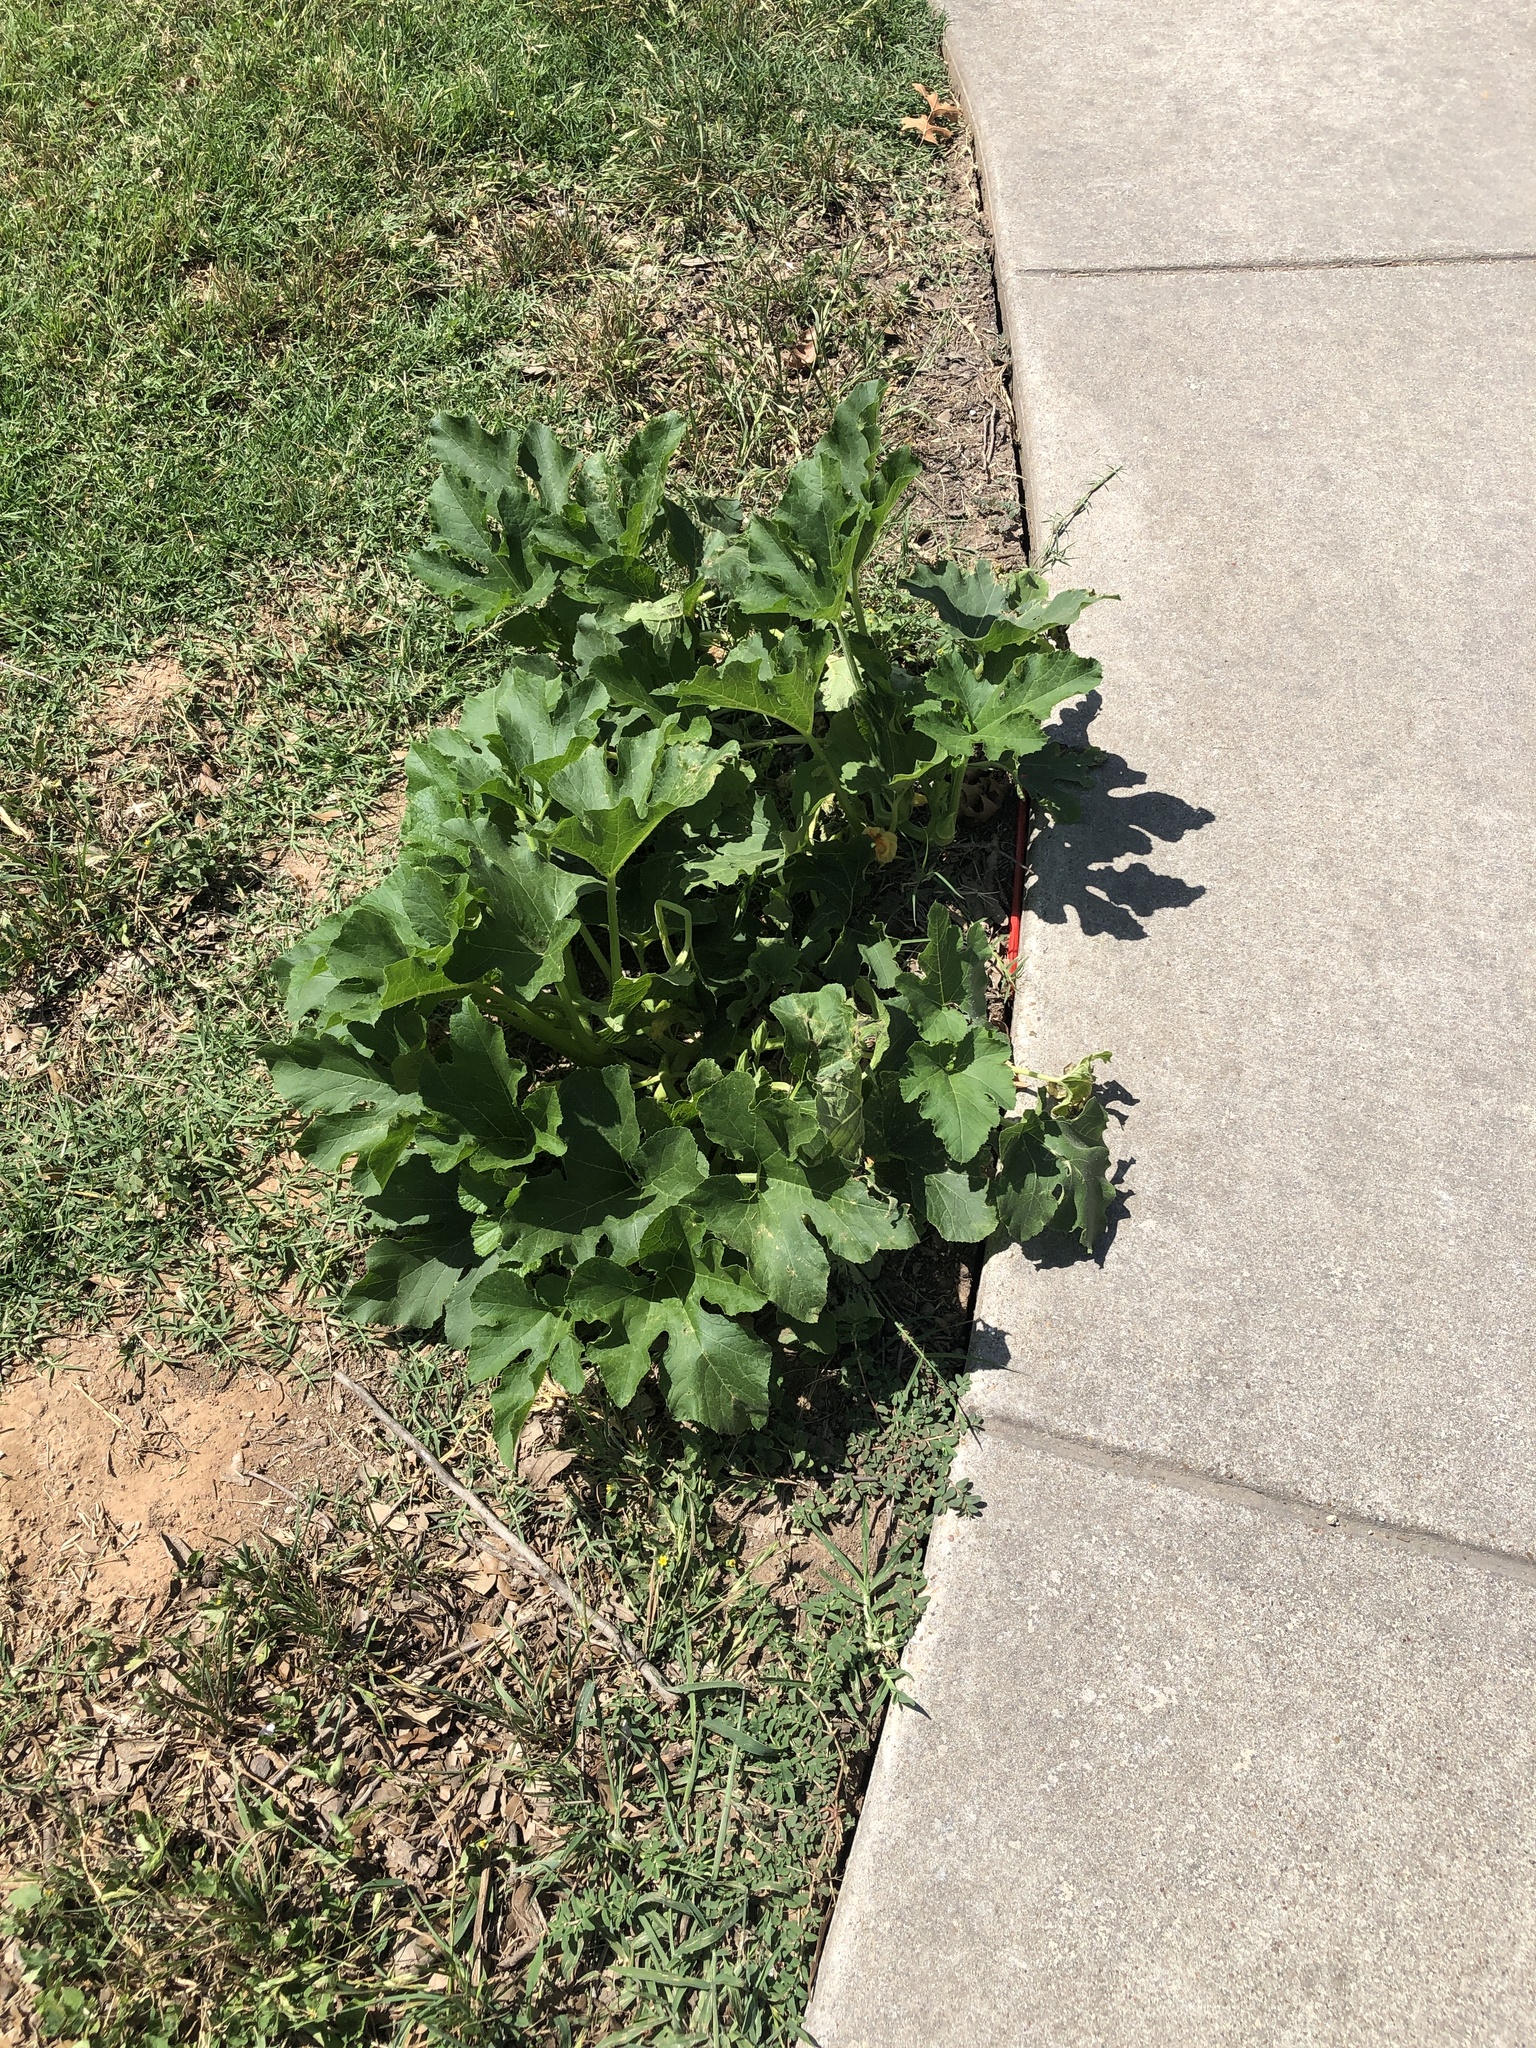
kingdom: Plantae
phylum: Tracheophyta
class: Magnoliopsida
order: Cucurbitales
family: Cucurbitaceae
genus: Cucurbita
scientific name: Cucurbita pepo
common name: Marrow
